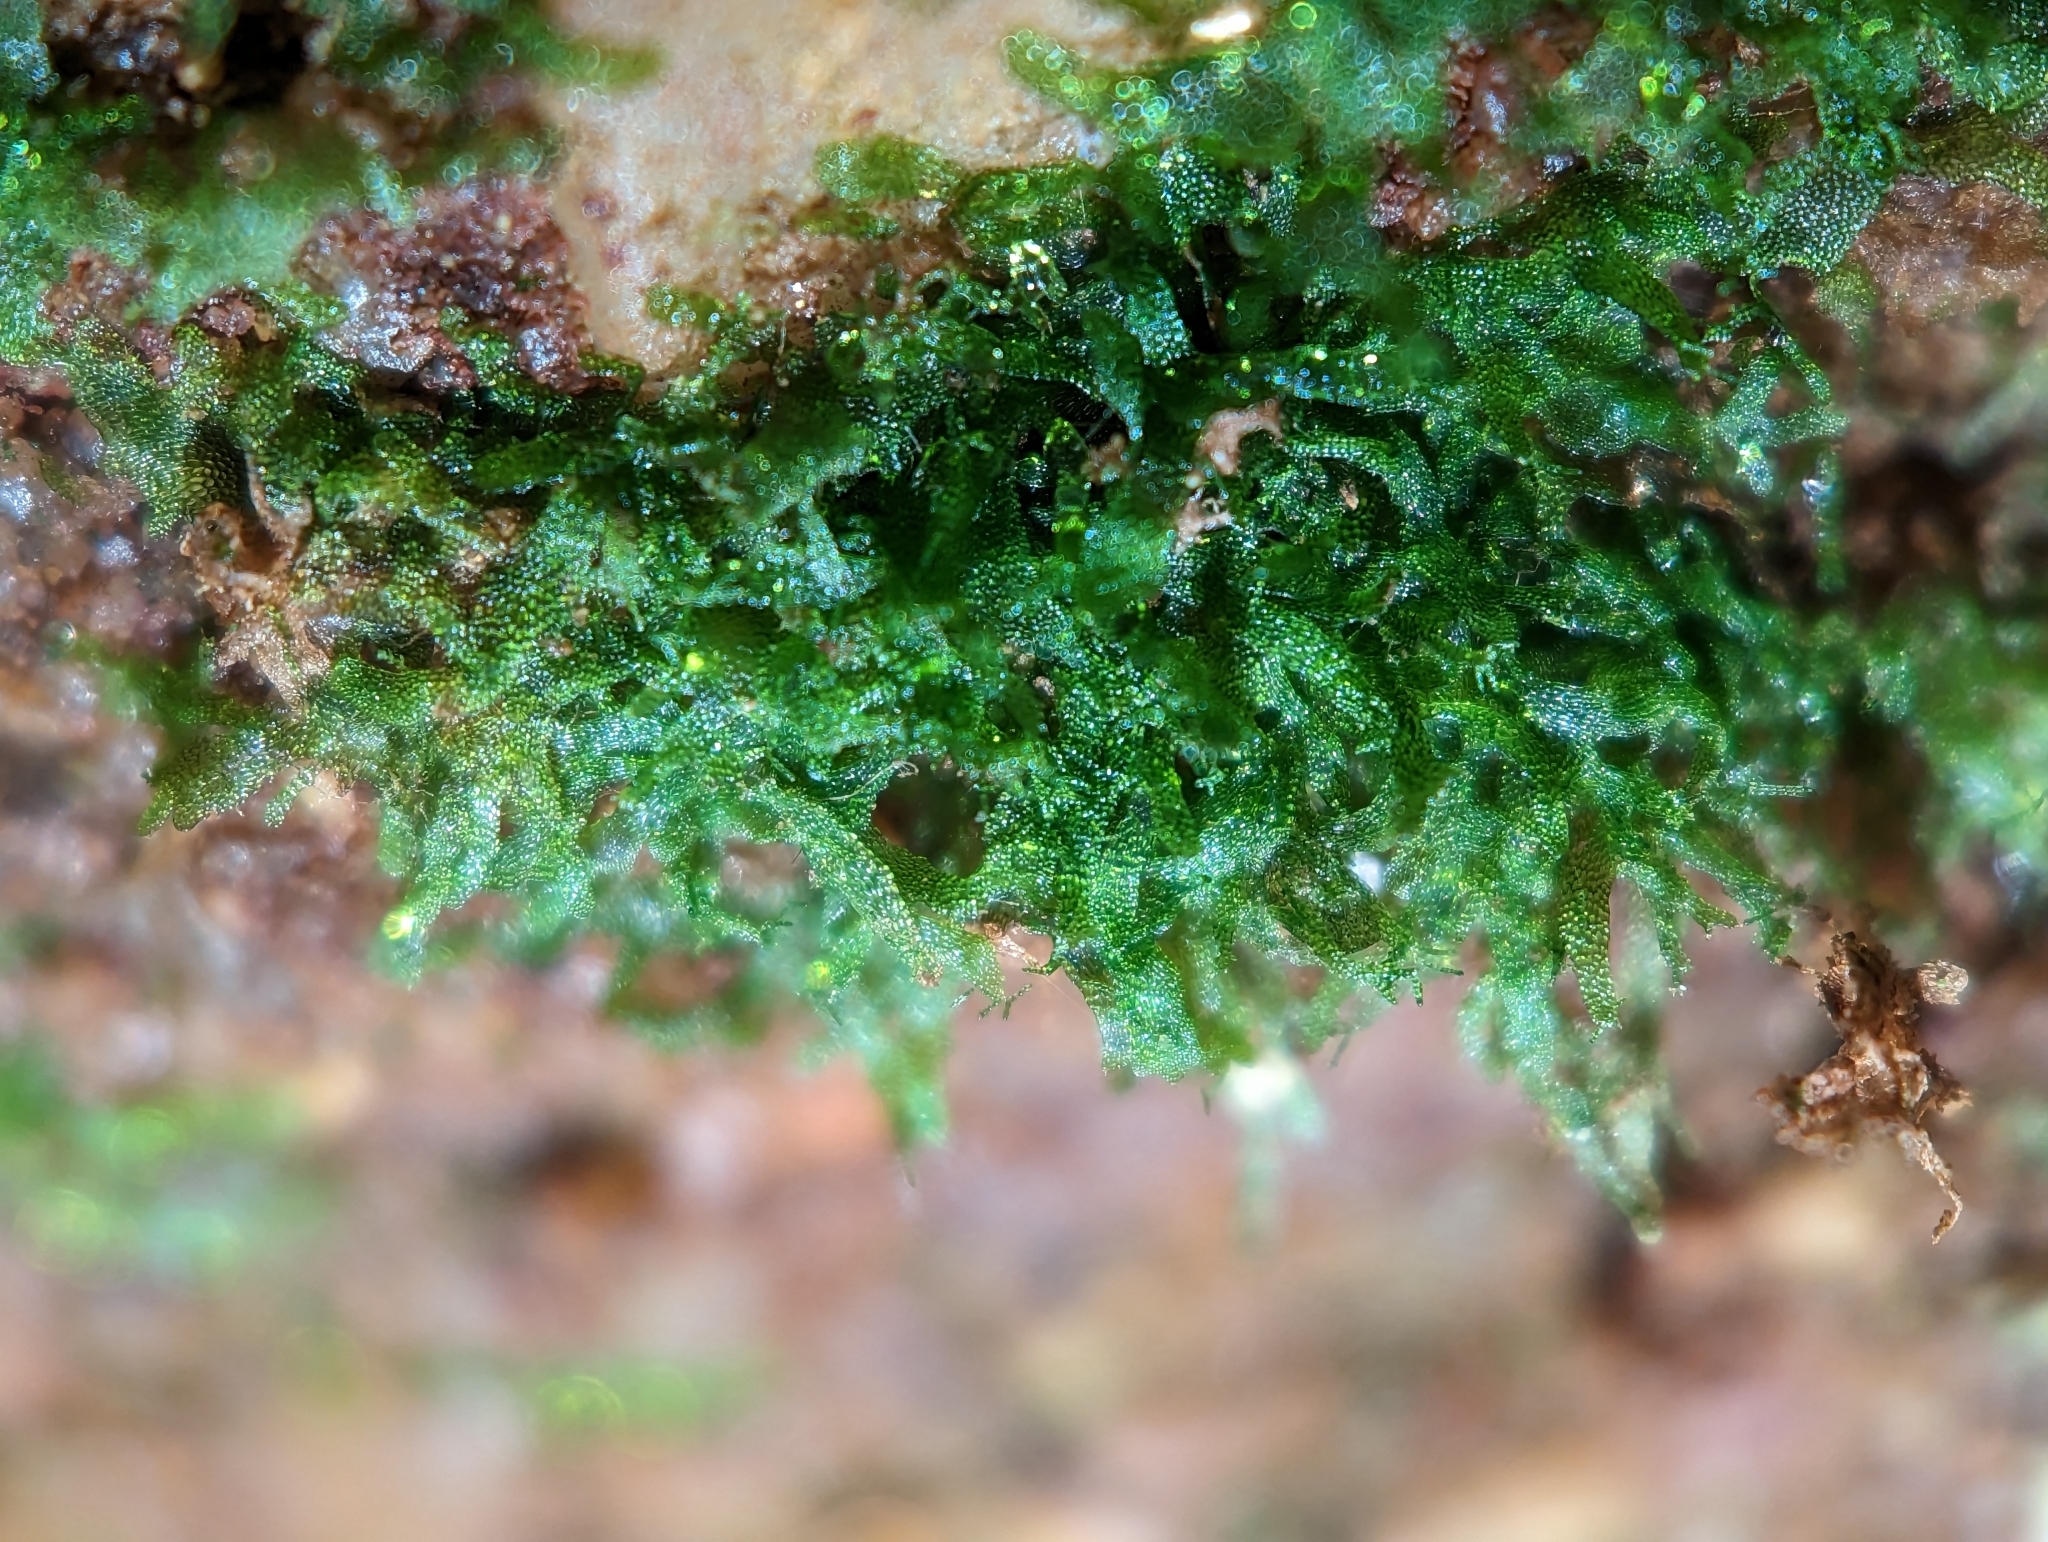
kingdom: Plantae
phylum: Tracheophyta
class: Polypodiopsida
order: Polypodiales
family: Pteridaceae
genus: Vittaria
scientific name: Vittaria appalachiana
